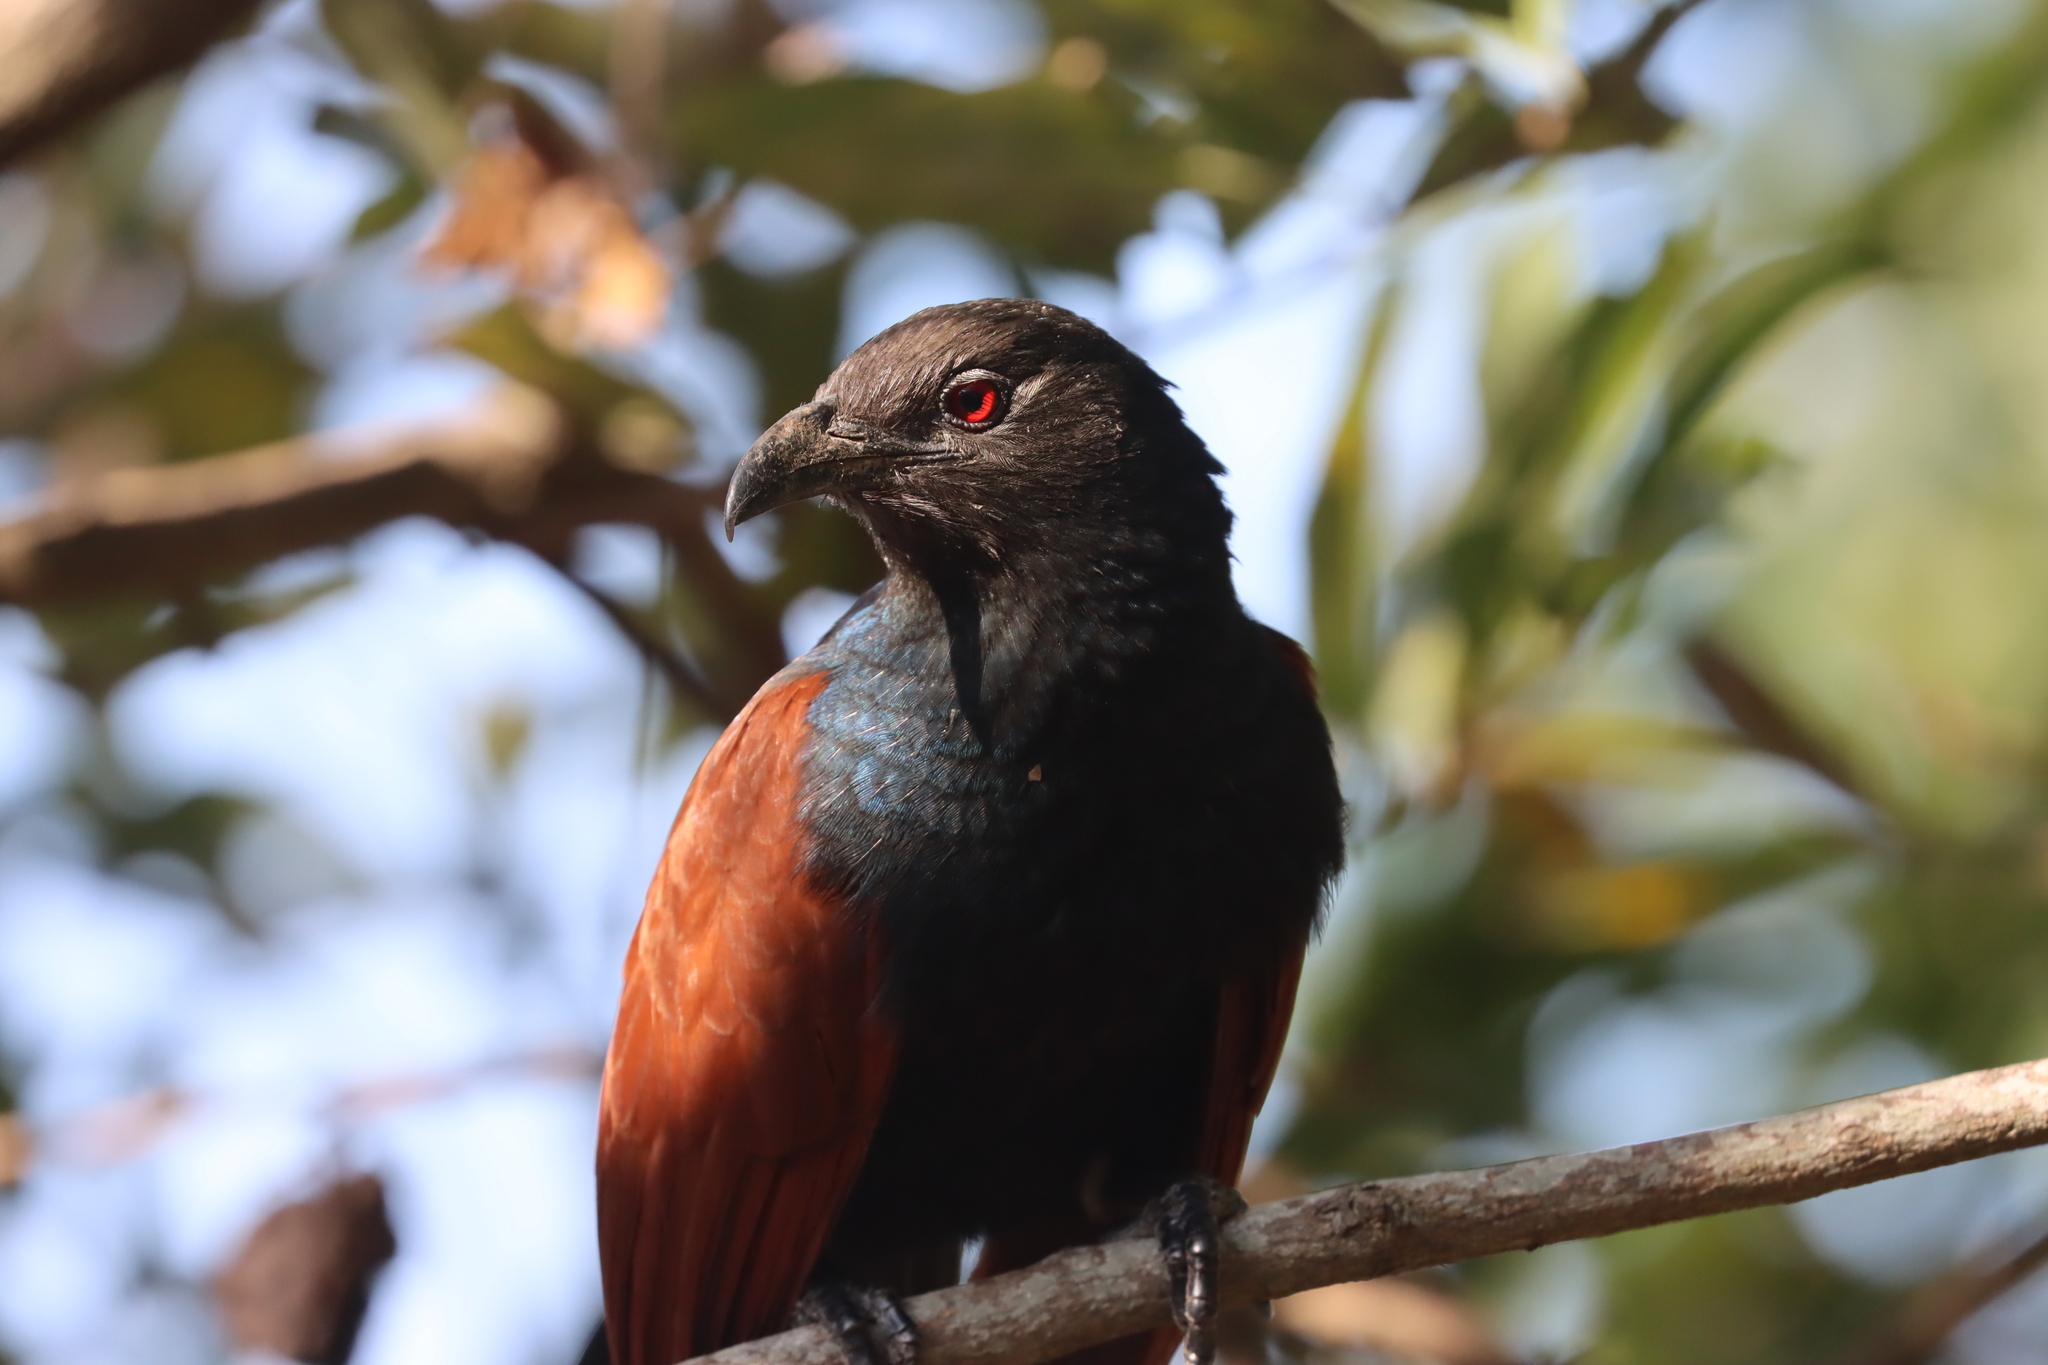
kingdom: Animalia
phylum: Chordata
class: Aves
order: Cuculiformes
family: Cuculidae
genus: Centropus
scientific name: Centropus sinensis
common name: Greater coucal
